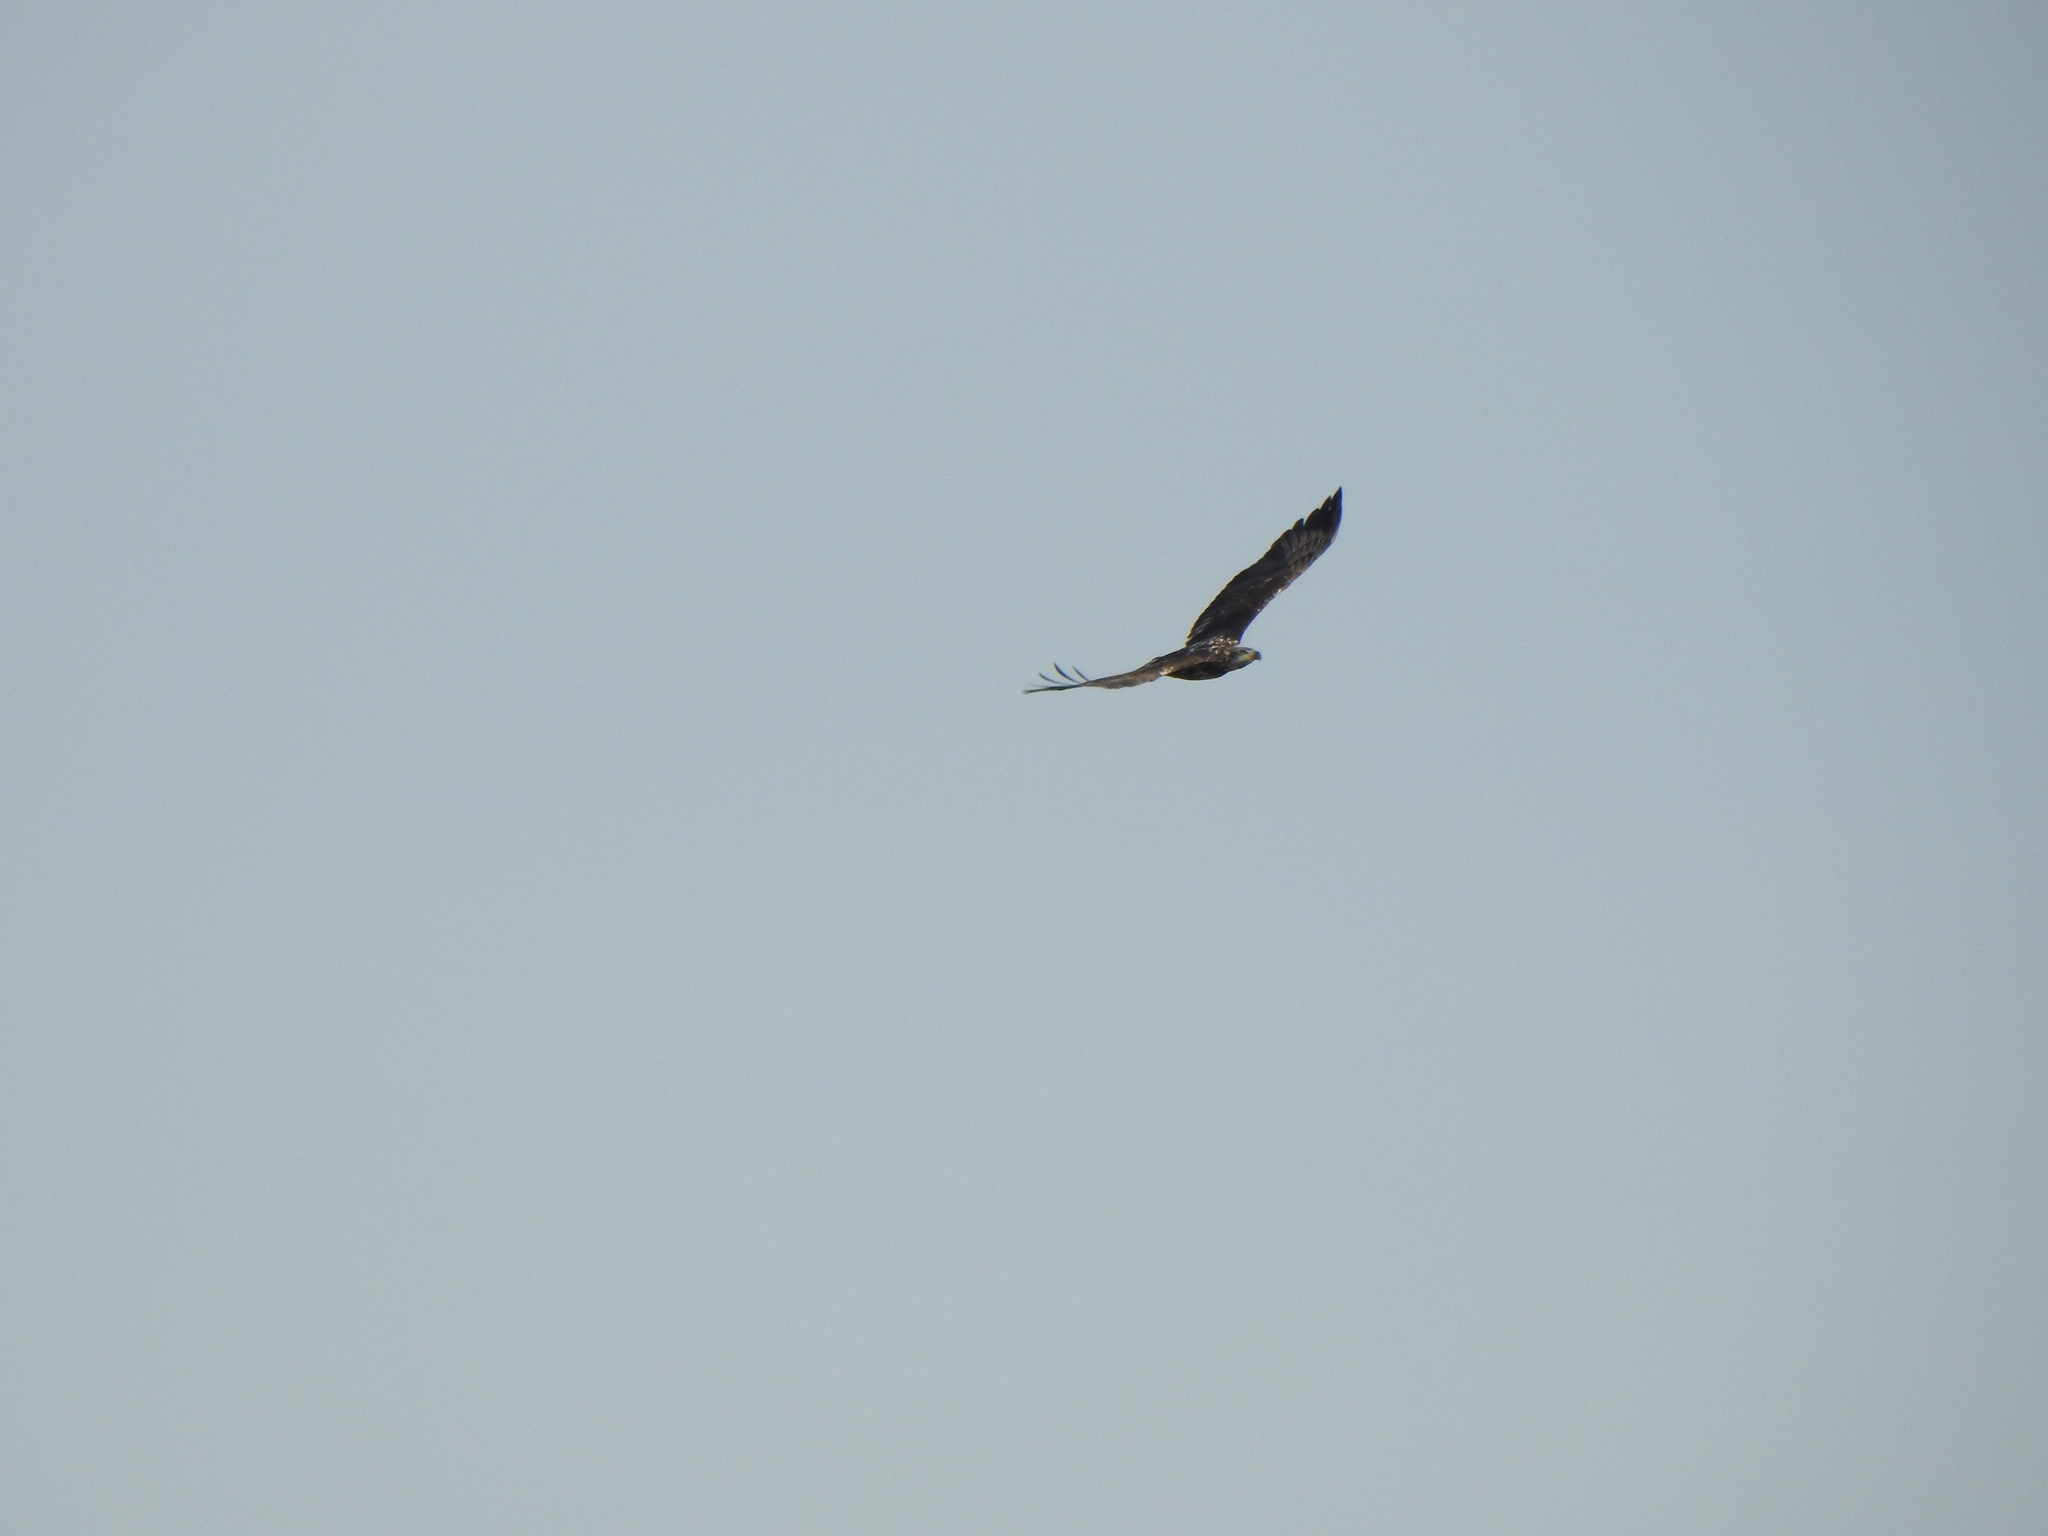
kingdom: Animalia
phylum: Chordata
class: Aves
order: Accipitriformes
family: Accipitridae
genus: Haliaeetus
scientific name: Haliaeetus leucocephalus
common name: Bald eagle
